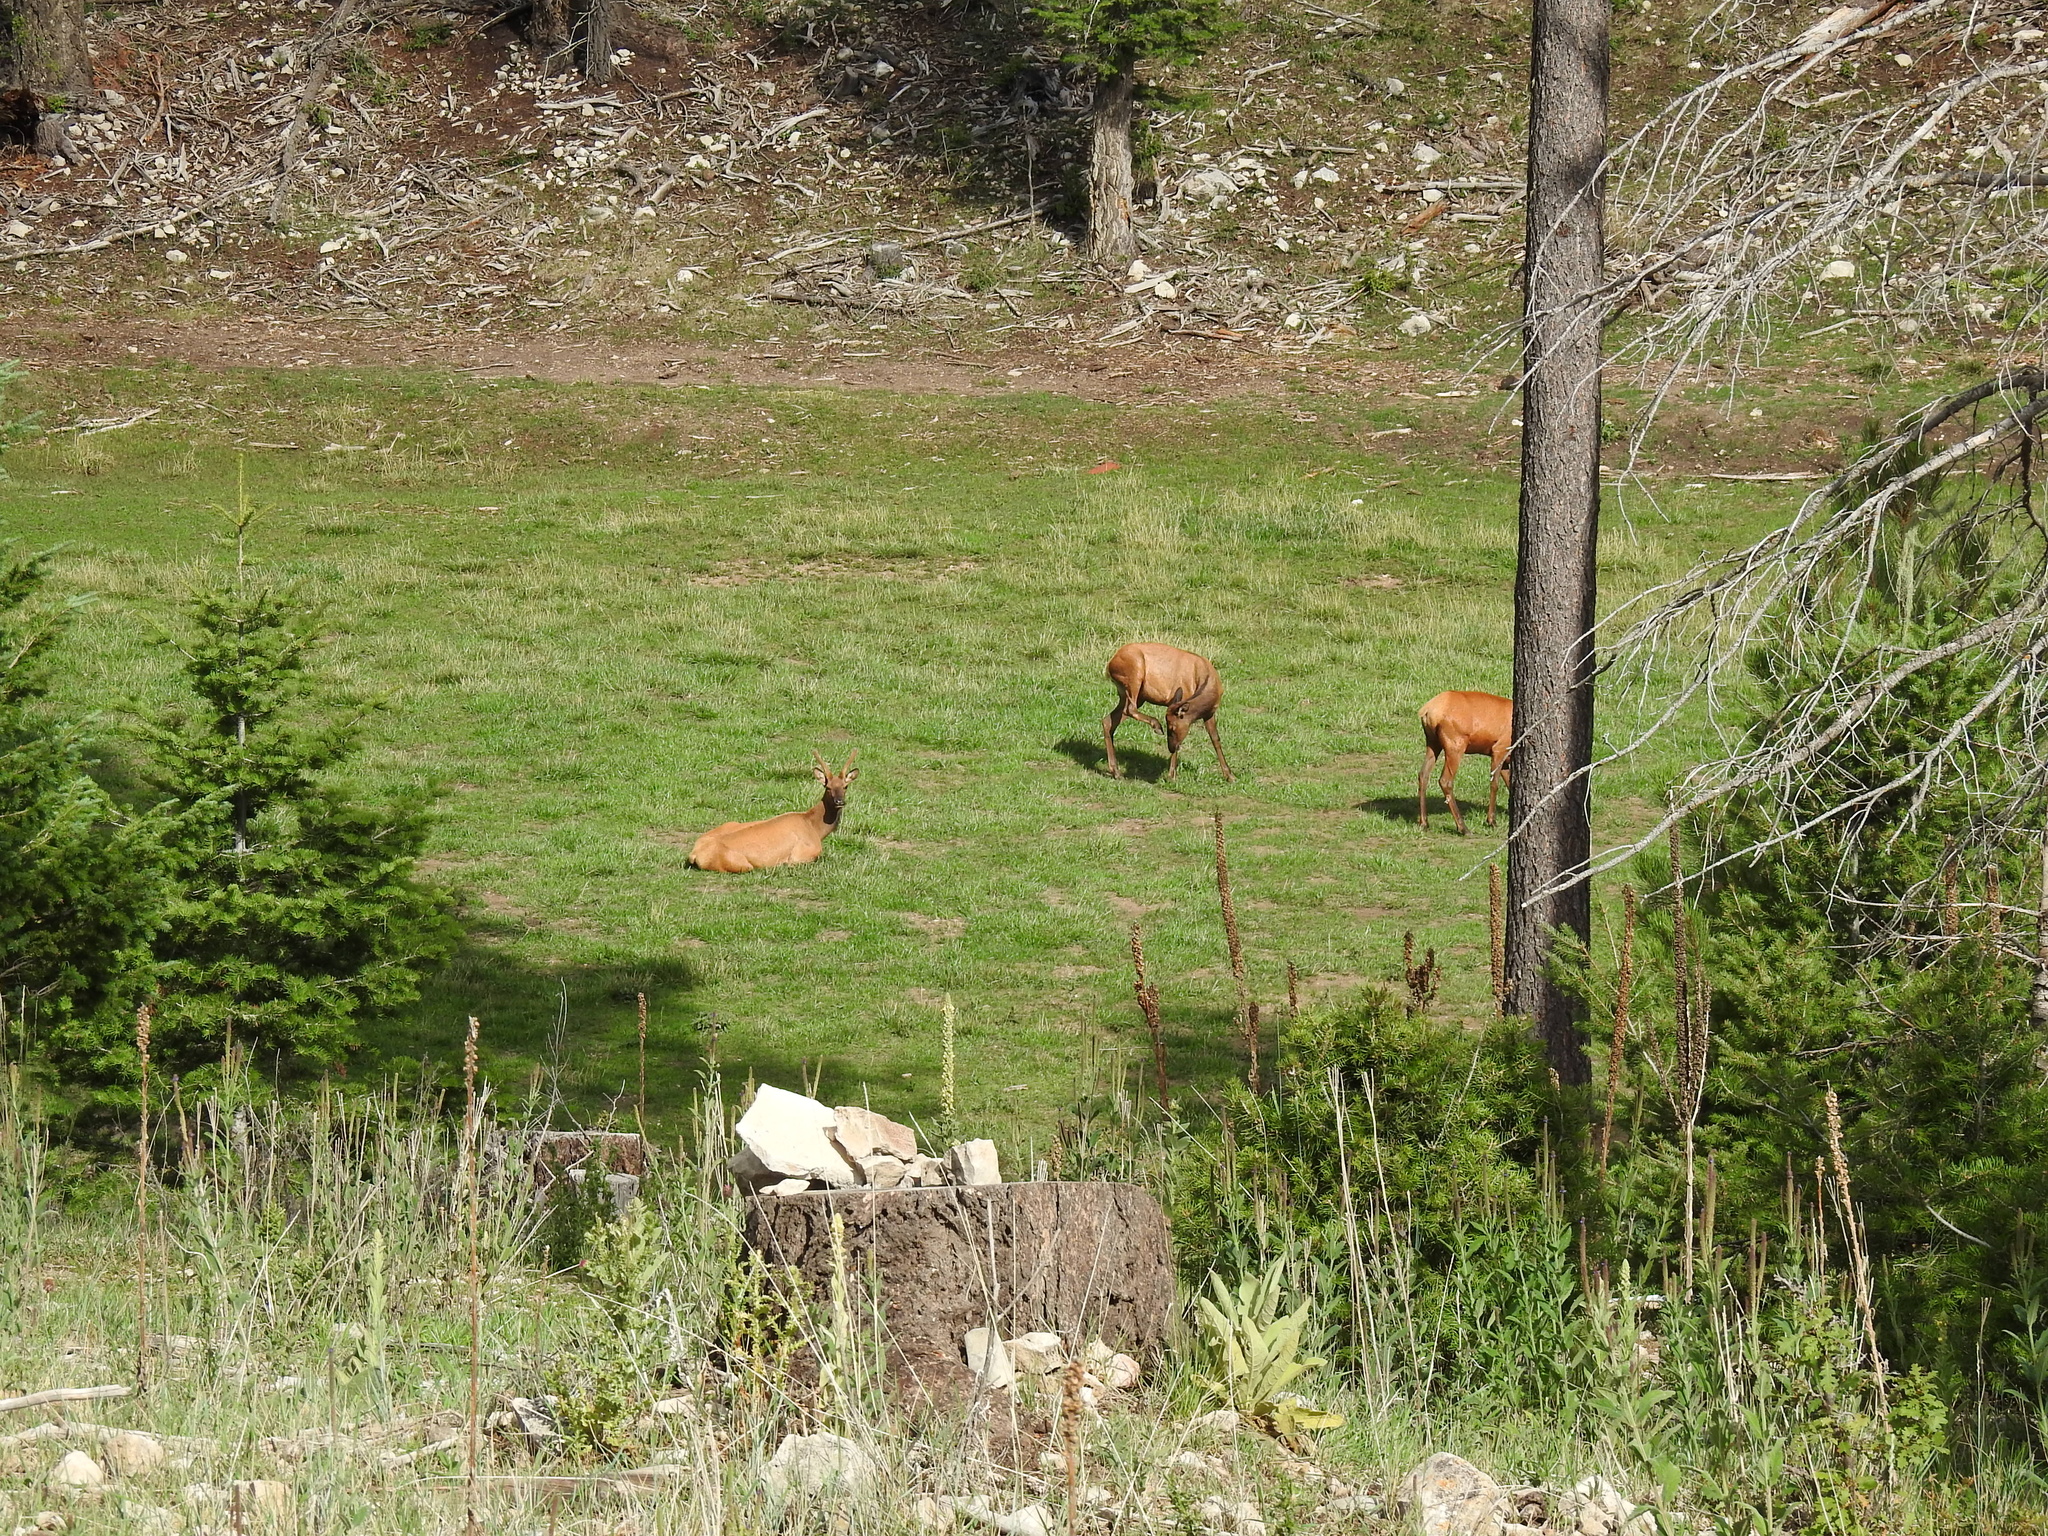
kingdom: Animalia
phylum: Chordata
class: Mammalia
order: Artiodactyla
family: Cervidae
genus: Cervus
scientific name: Cervus elaphus
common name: Red deer
